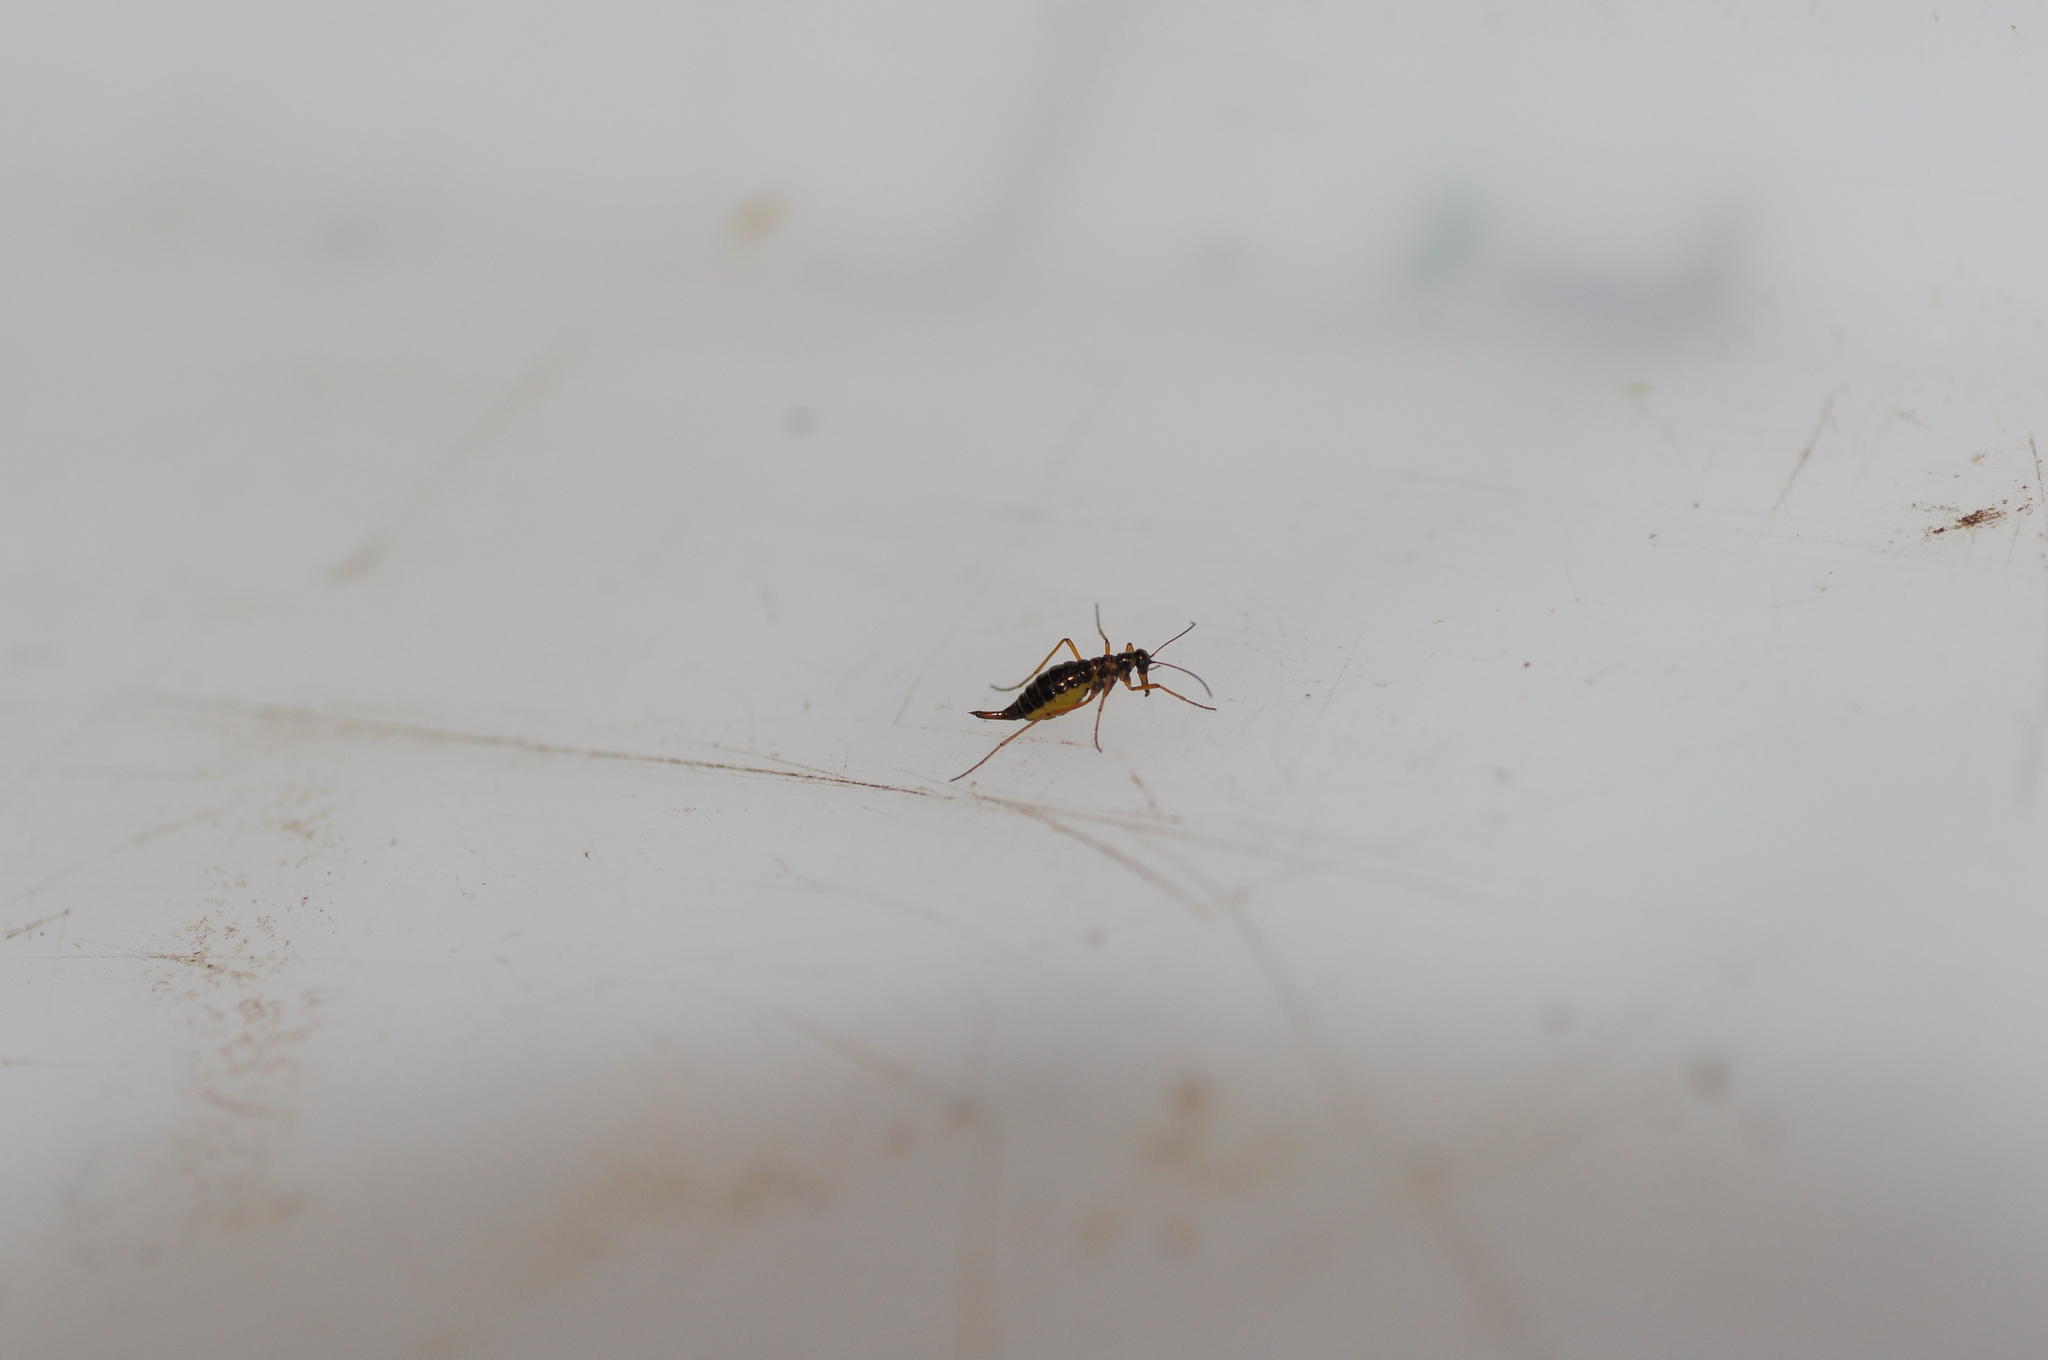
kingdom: Animalia
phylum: Arthropoda
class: Insecta
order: Mecoptera
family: Boreidae
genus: Boreus
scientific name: Boreus hyemalis
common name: Snow flea
